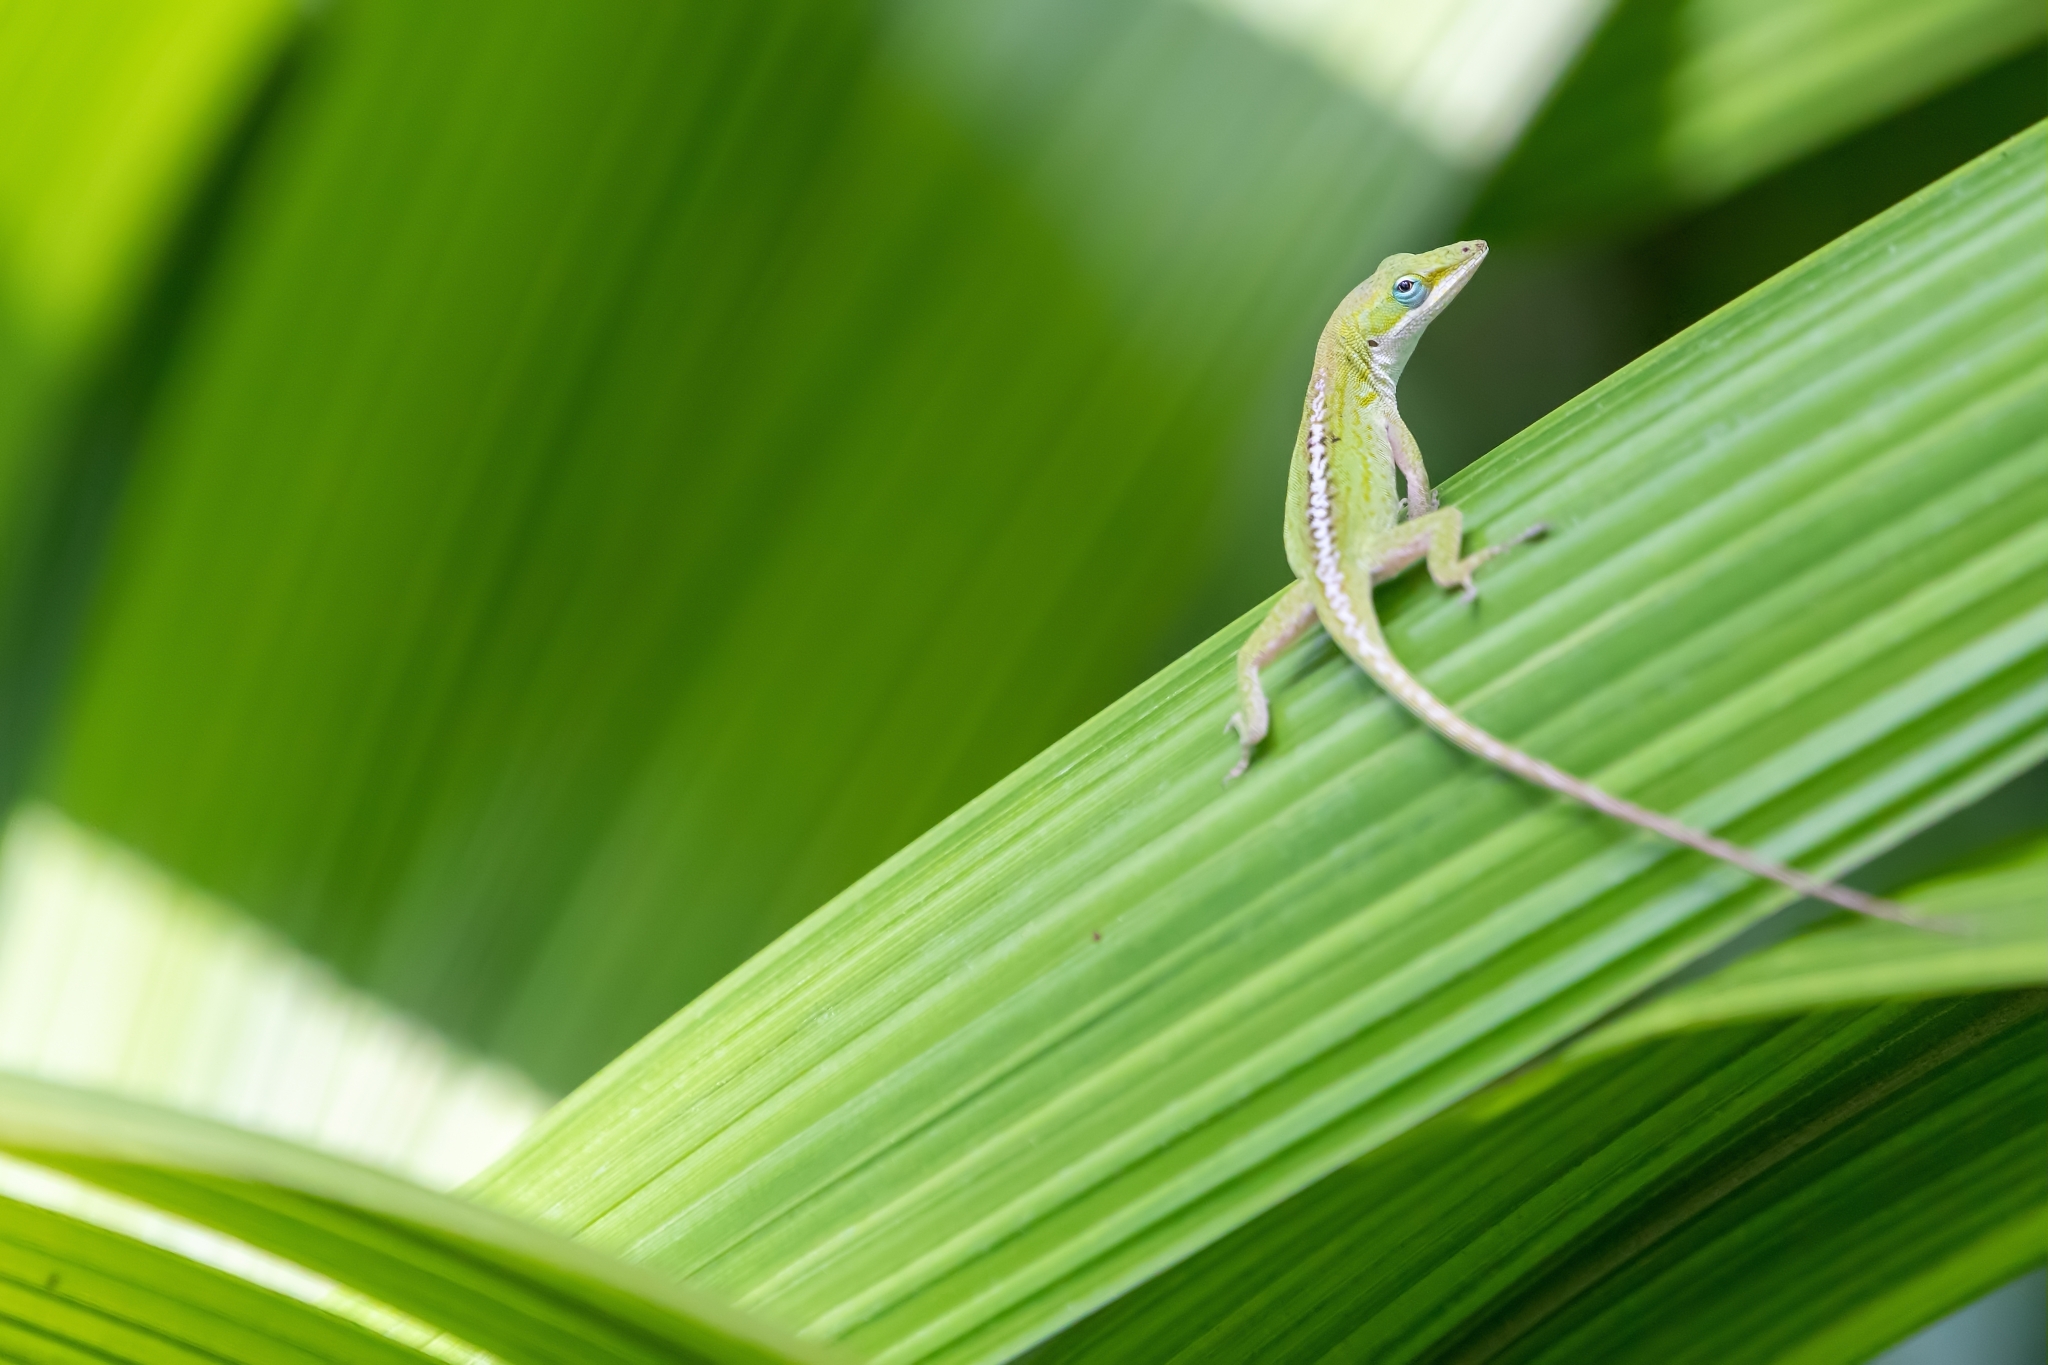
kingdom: Animalia
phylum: Chordata
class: Squamata
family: Dactyloidae
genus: Anolis
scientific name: Anolis carolinensis
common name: Green anole
